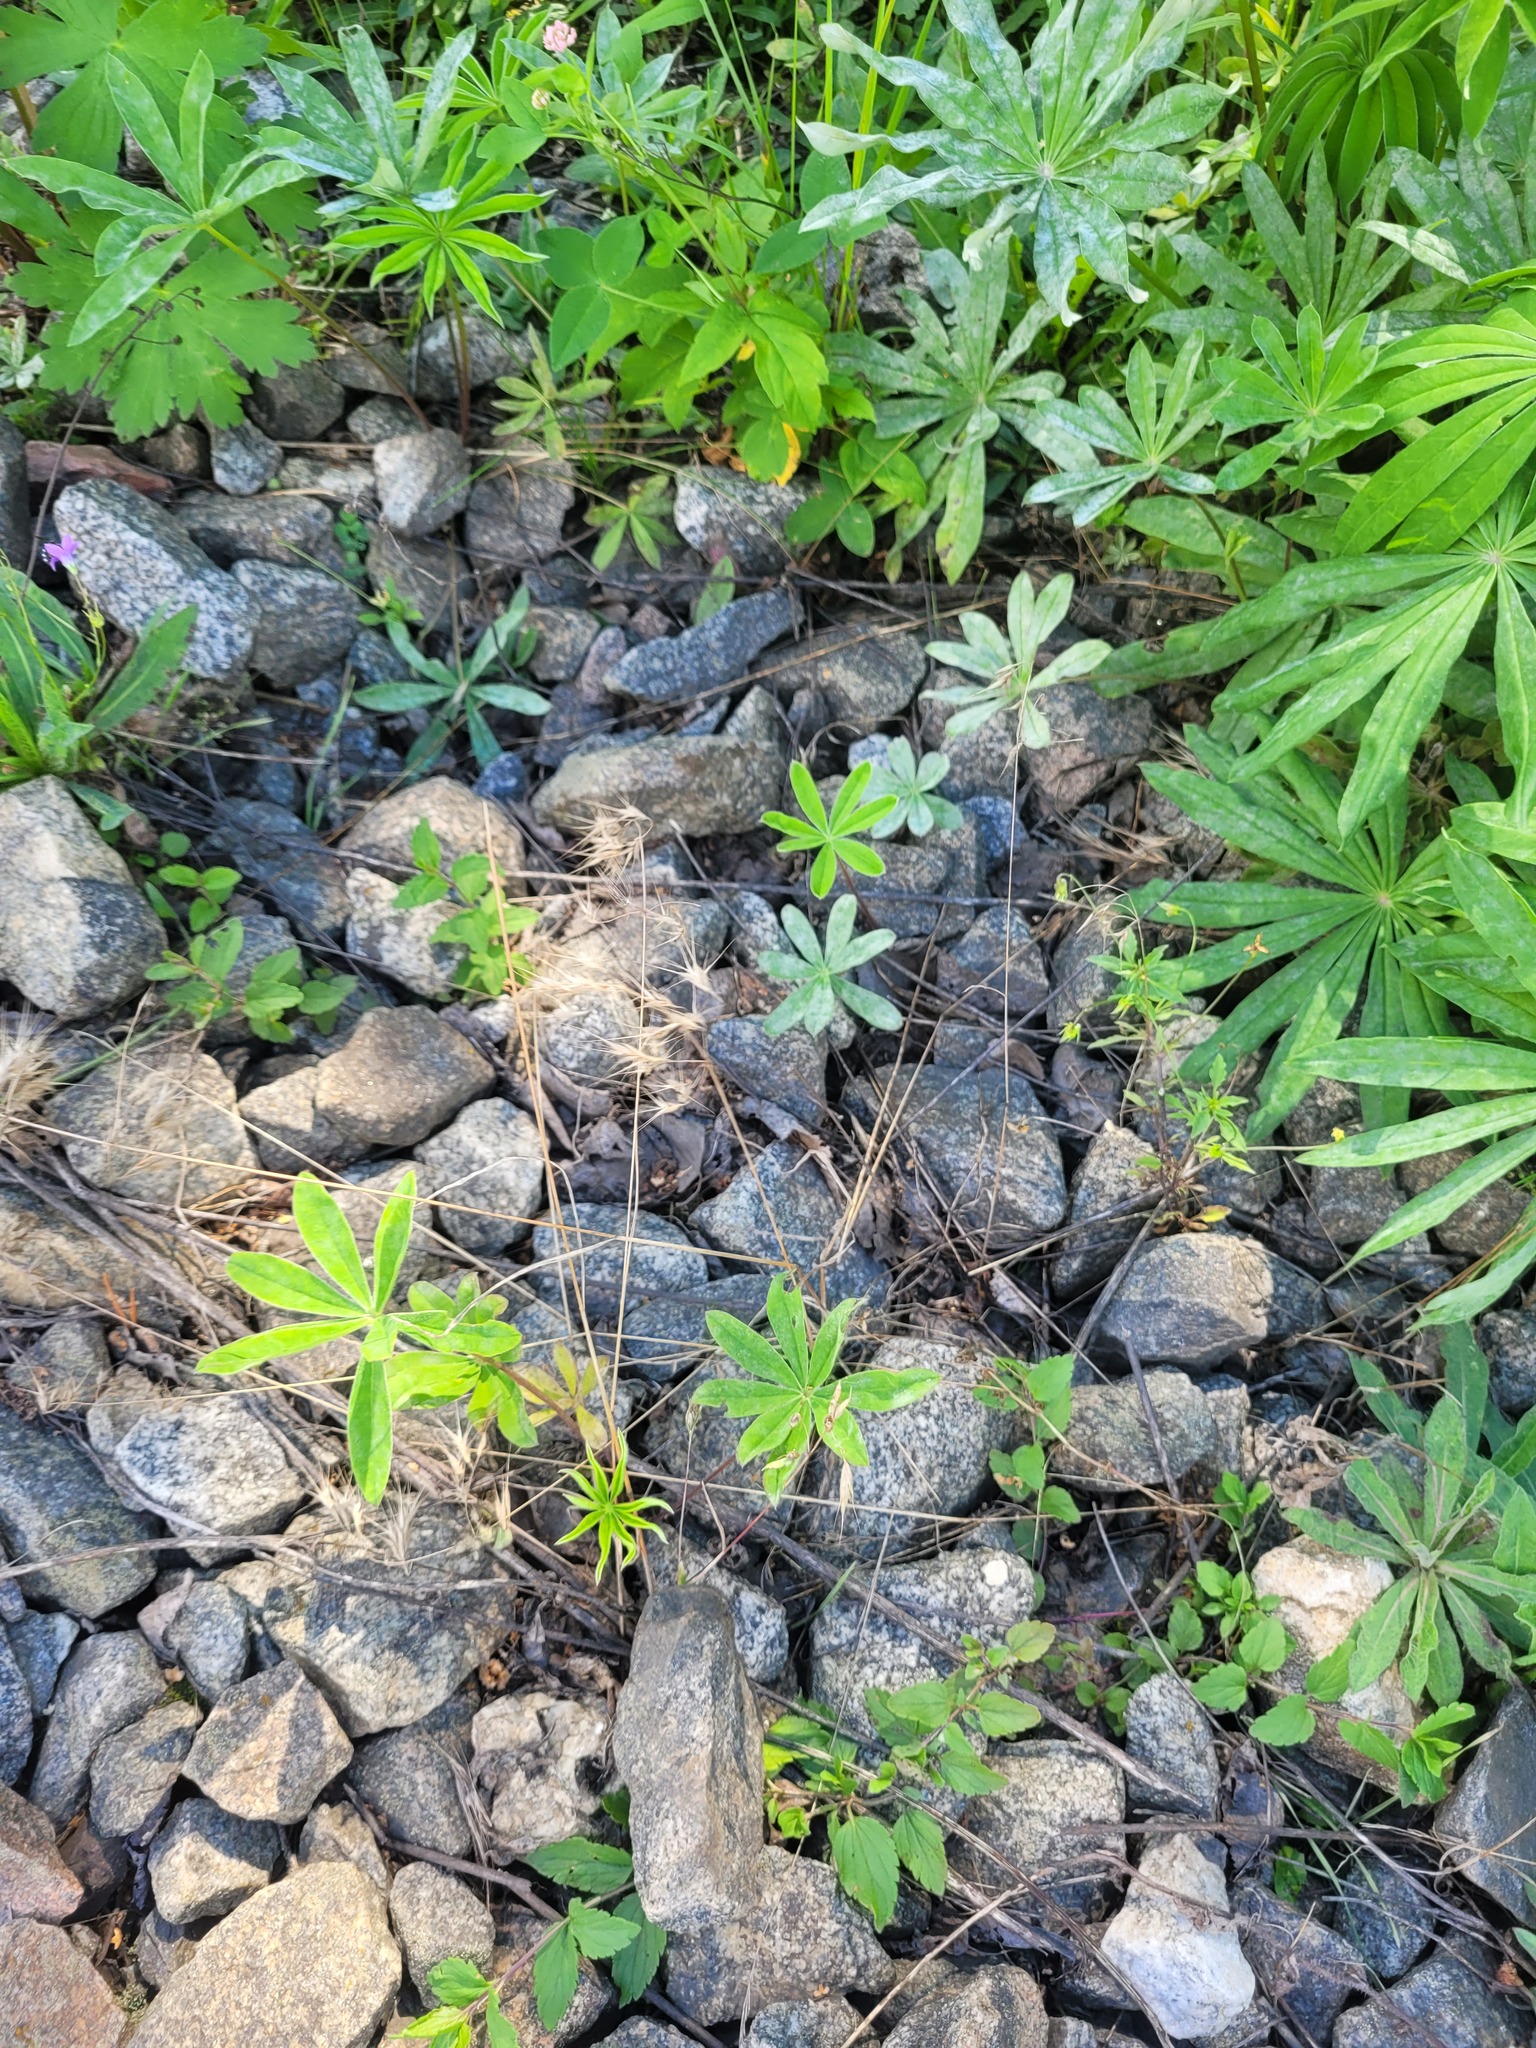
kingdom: Plantae
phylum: Tracheophyta
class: Liliopsida
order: Poales
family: Poaceae
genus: Bromus
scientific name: Bromus tectorum
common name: Cheatgrass
